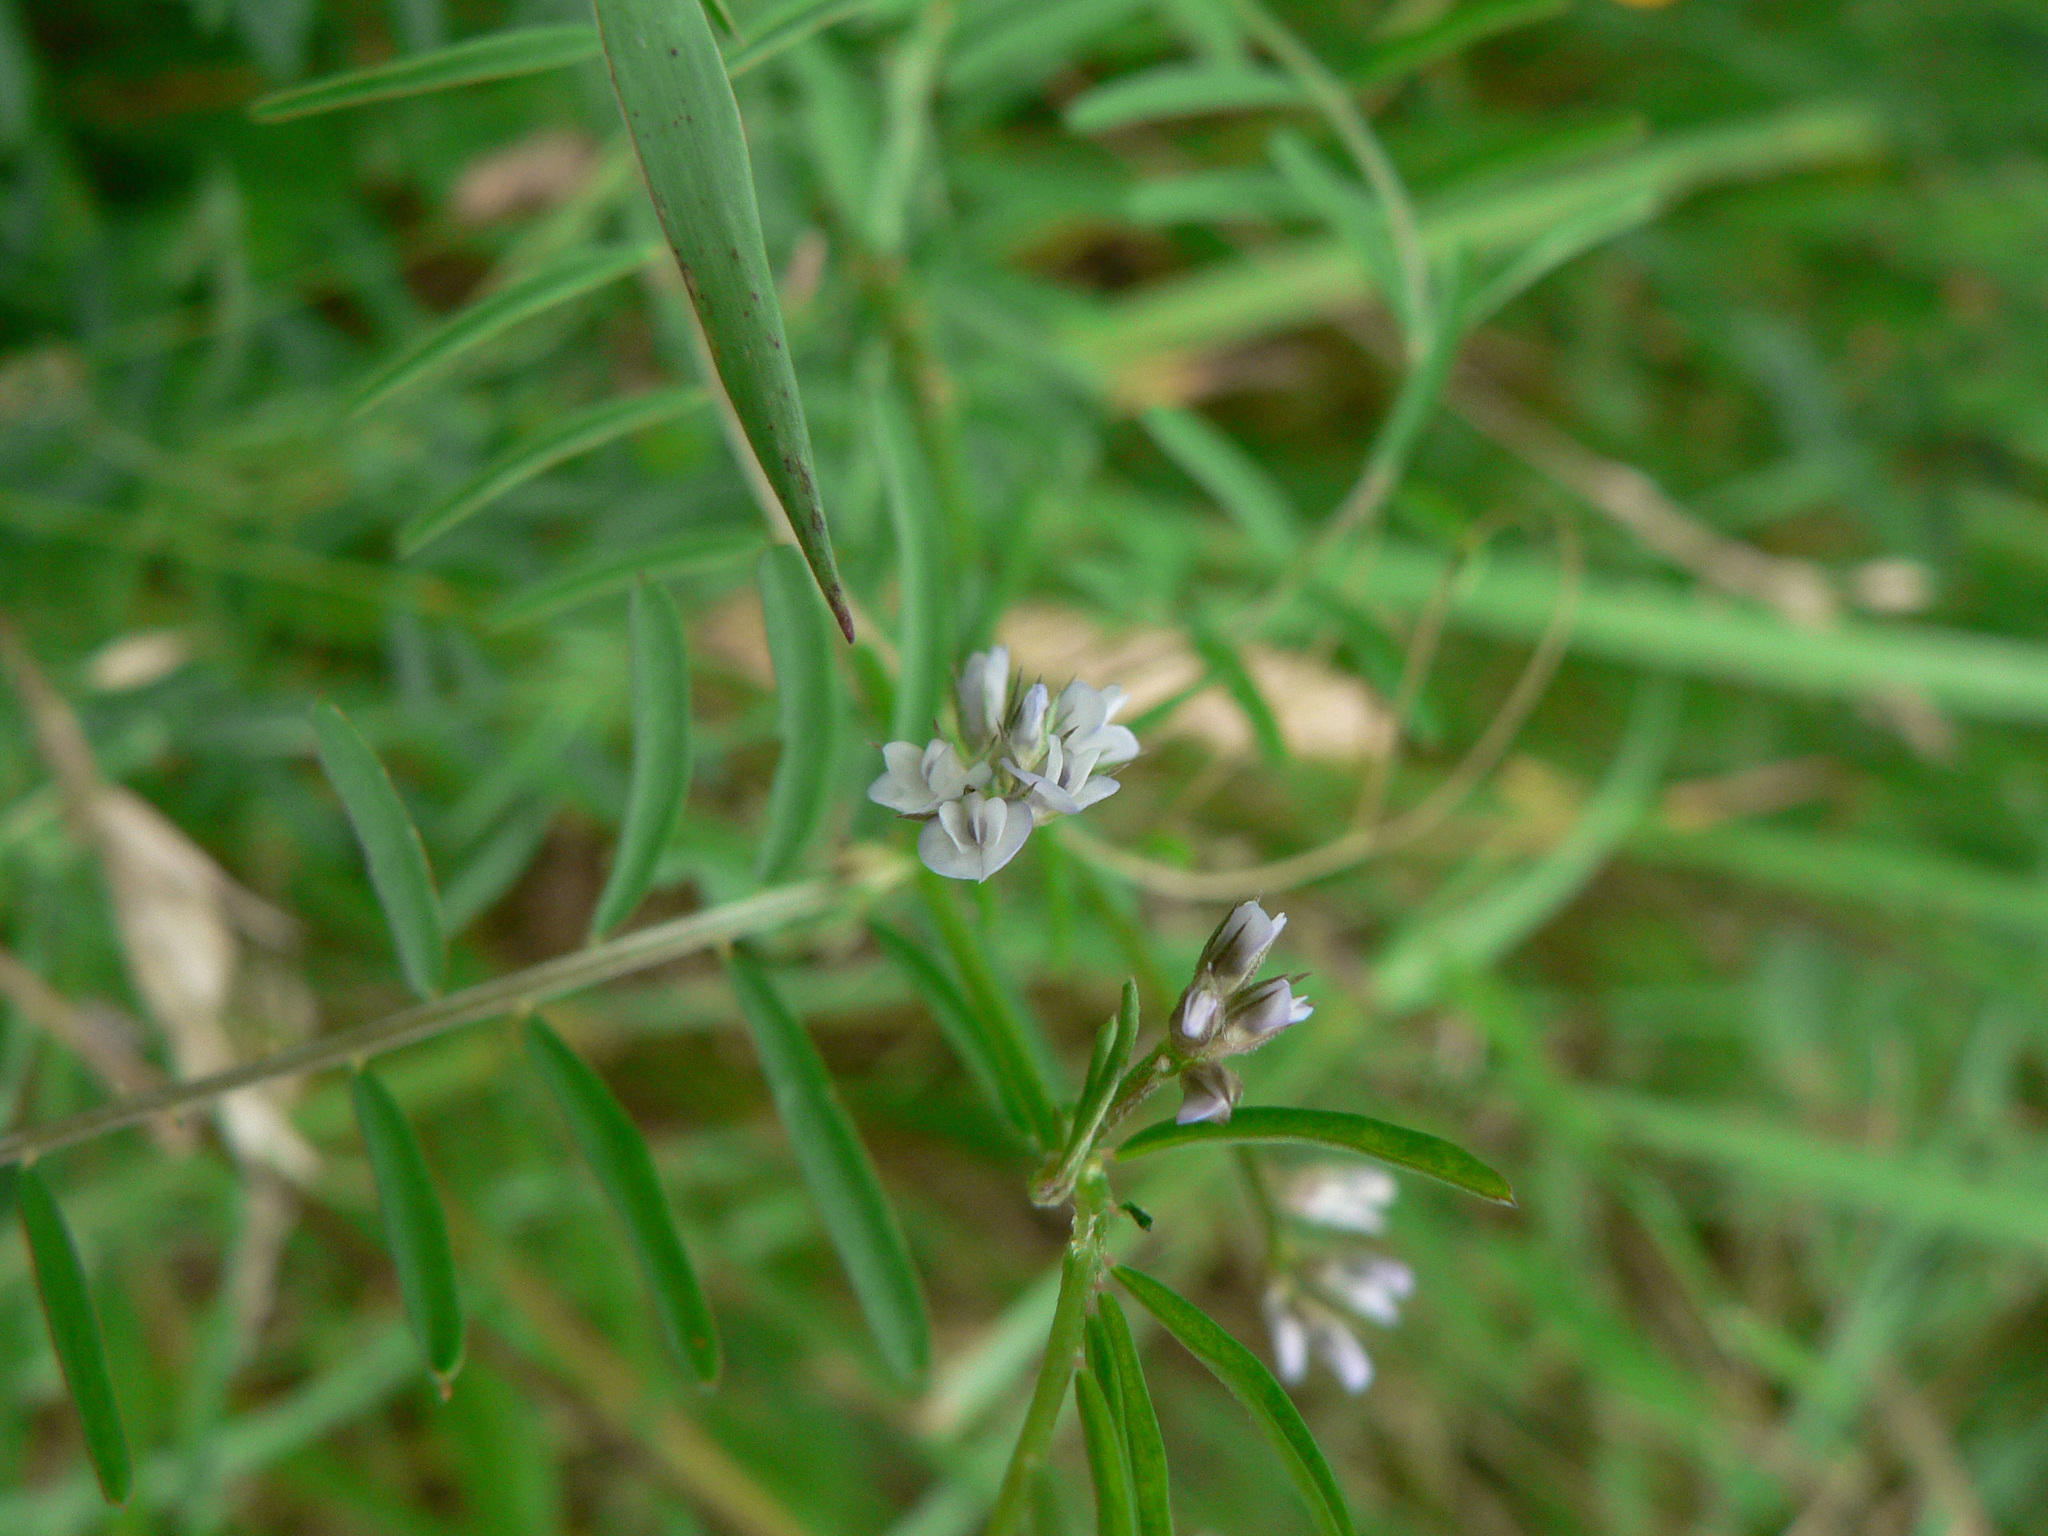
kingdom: Plantae
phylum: Tracheophyta
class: Magnoliopsida
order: Fabales
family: Fabaceae
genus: Vicia
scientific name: Vicia hirsuta
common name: Tiny vetch
